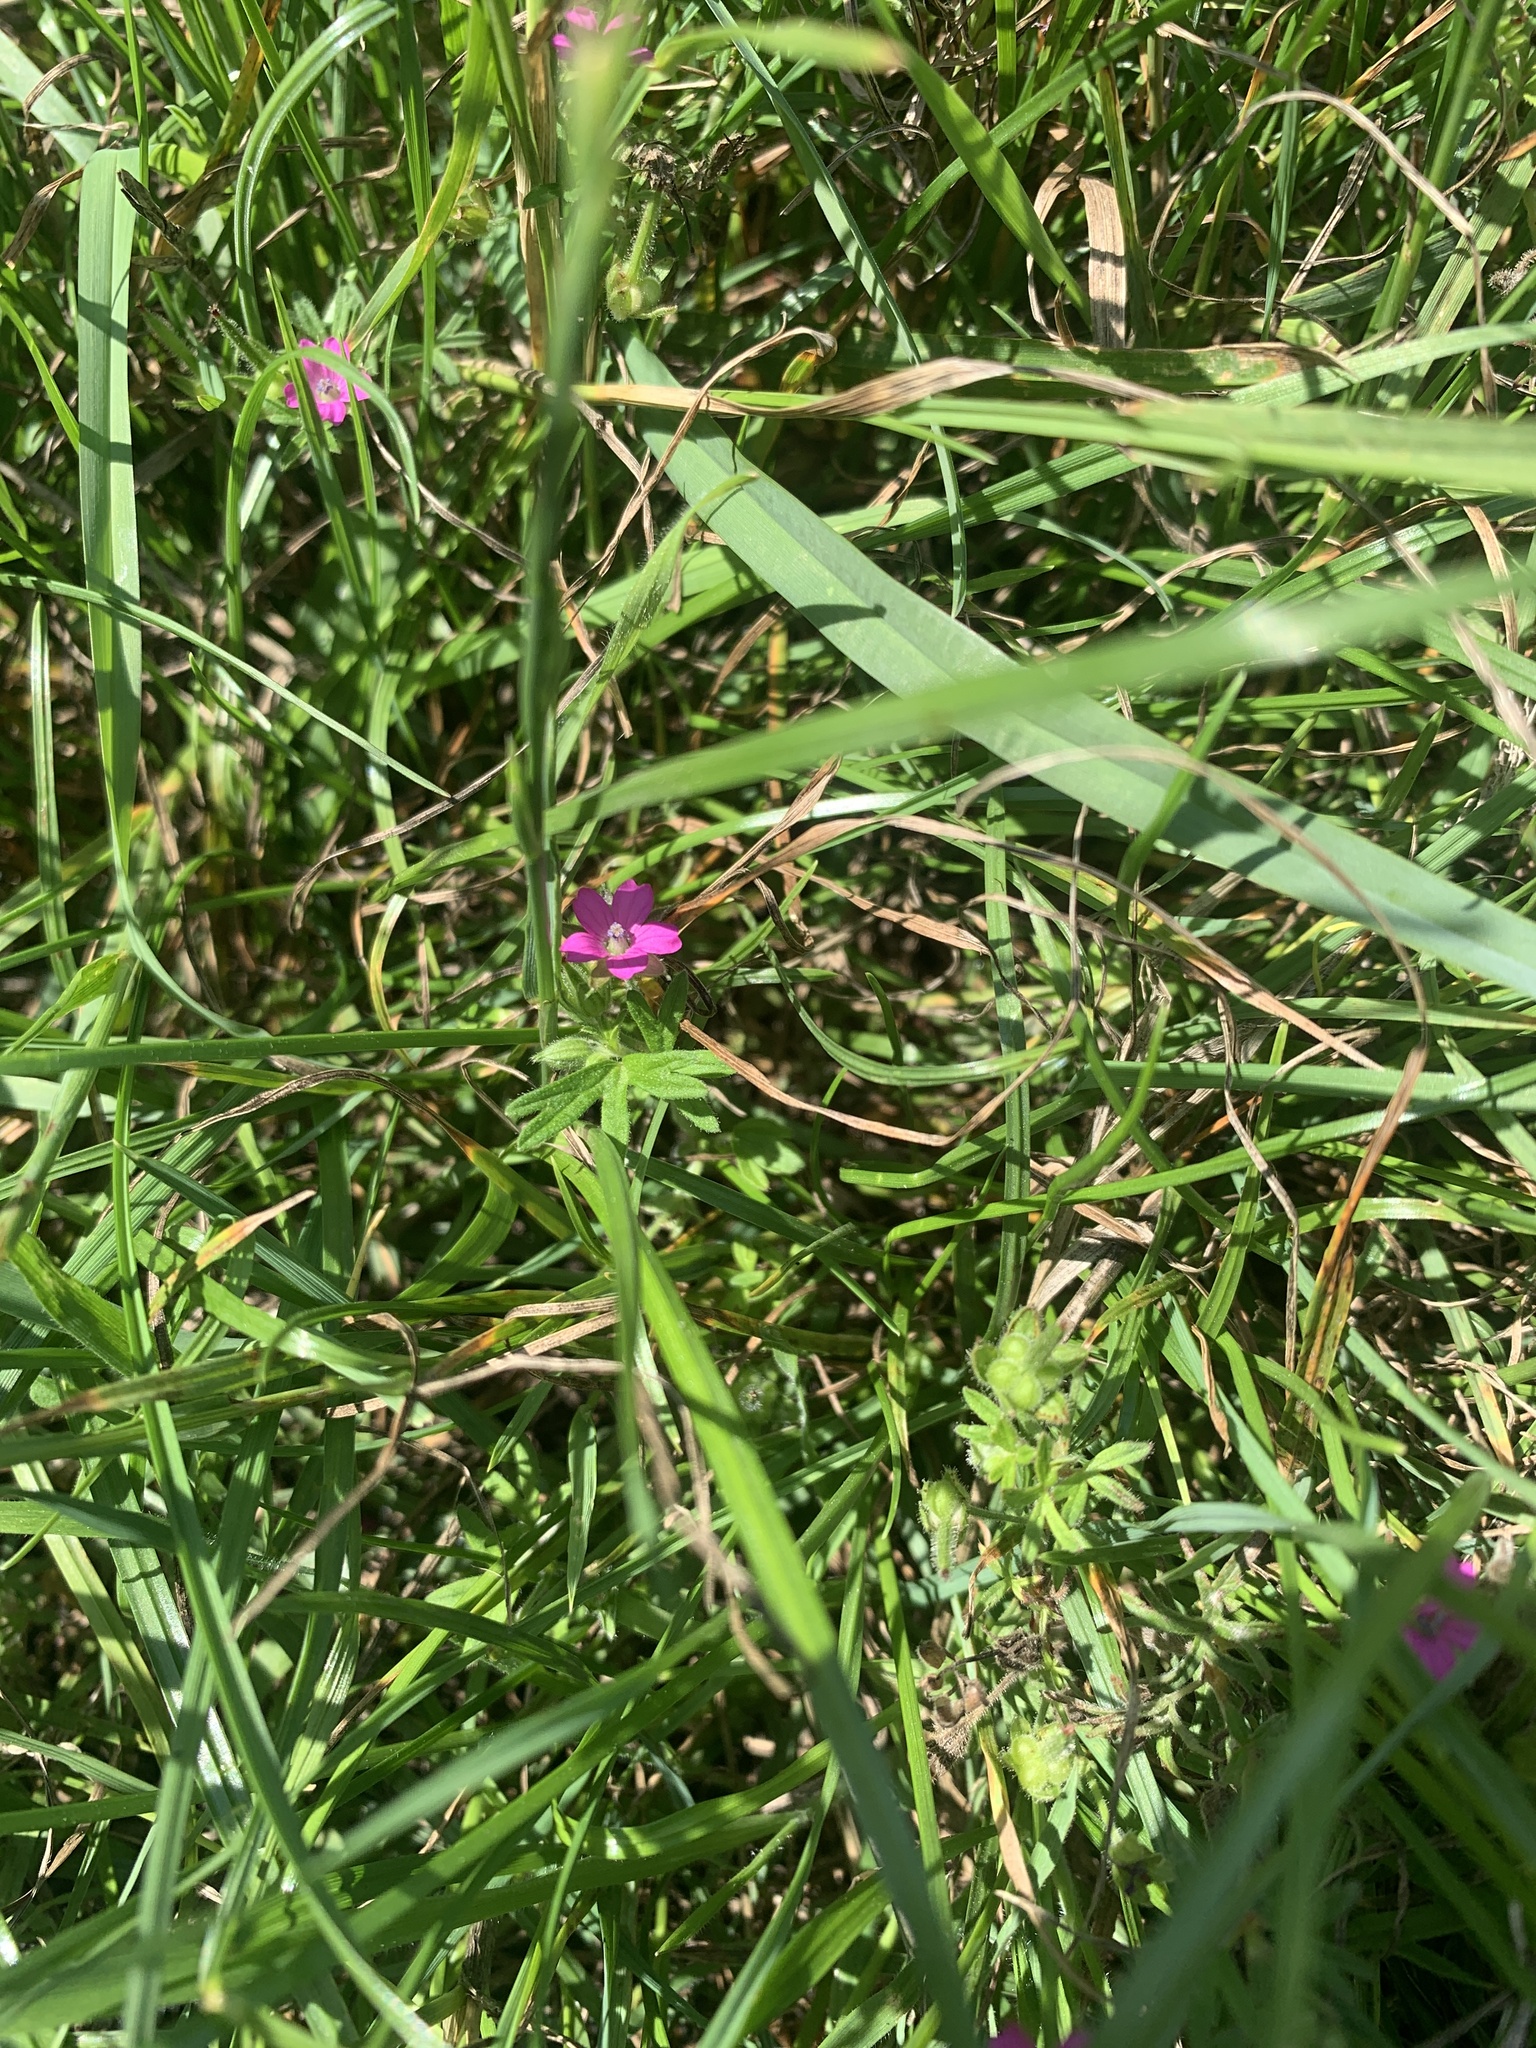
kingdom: Plantae
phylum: Tracheophyta
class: Magnoliopsida
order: Geraniales
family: Geraniaceae
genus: Geranium
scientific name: Geranium dissectum
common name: Cut-leaved crane's-bill
